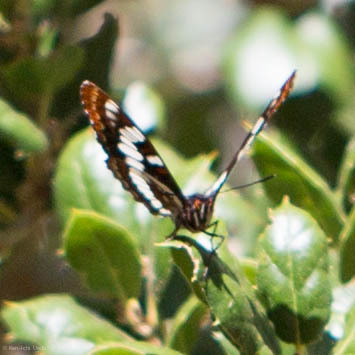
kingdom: Animalia
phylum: Arthropoda
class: Insecta
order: Lepidoptera
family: Nymphalidae
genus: Limenitis
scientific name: Limenitis lorquini
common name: Lorquin's admiral
